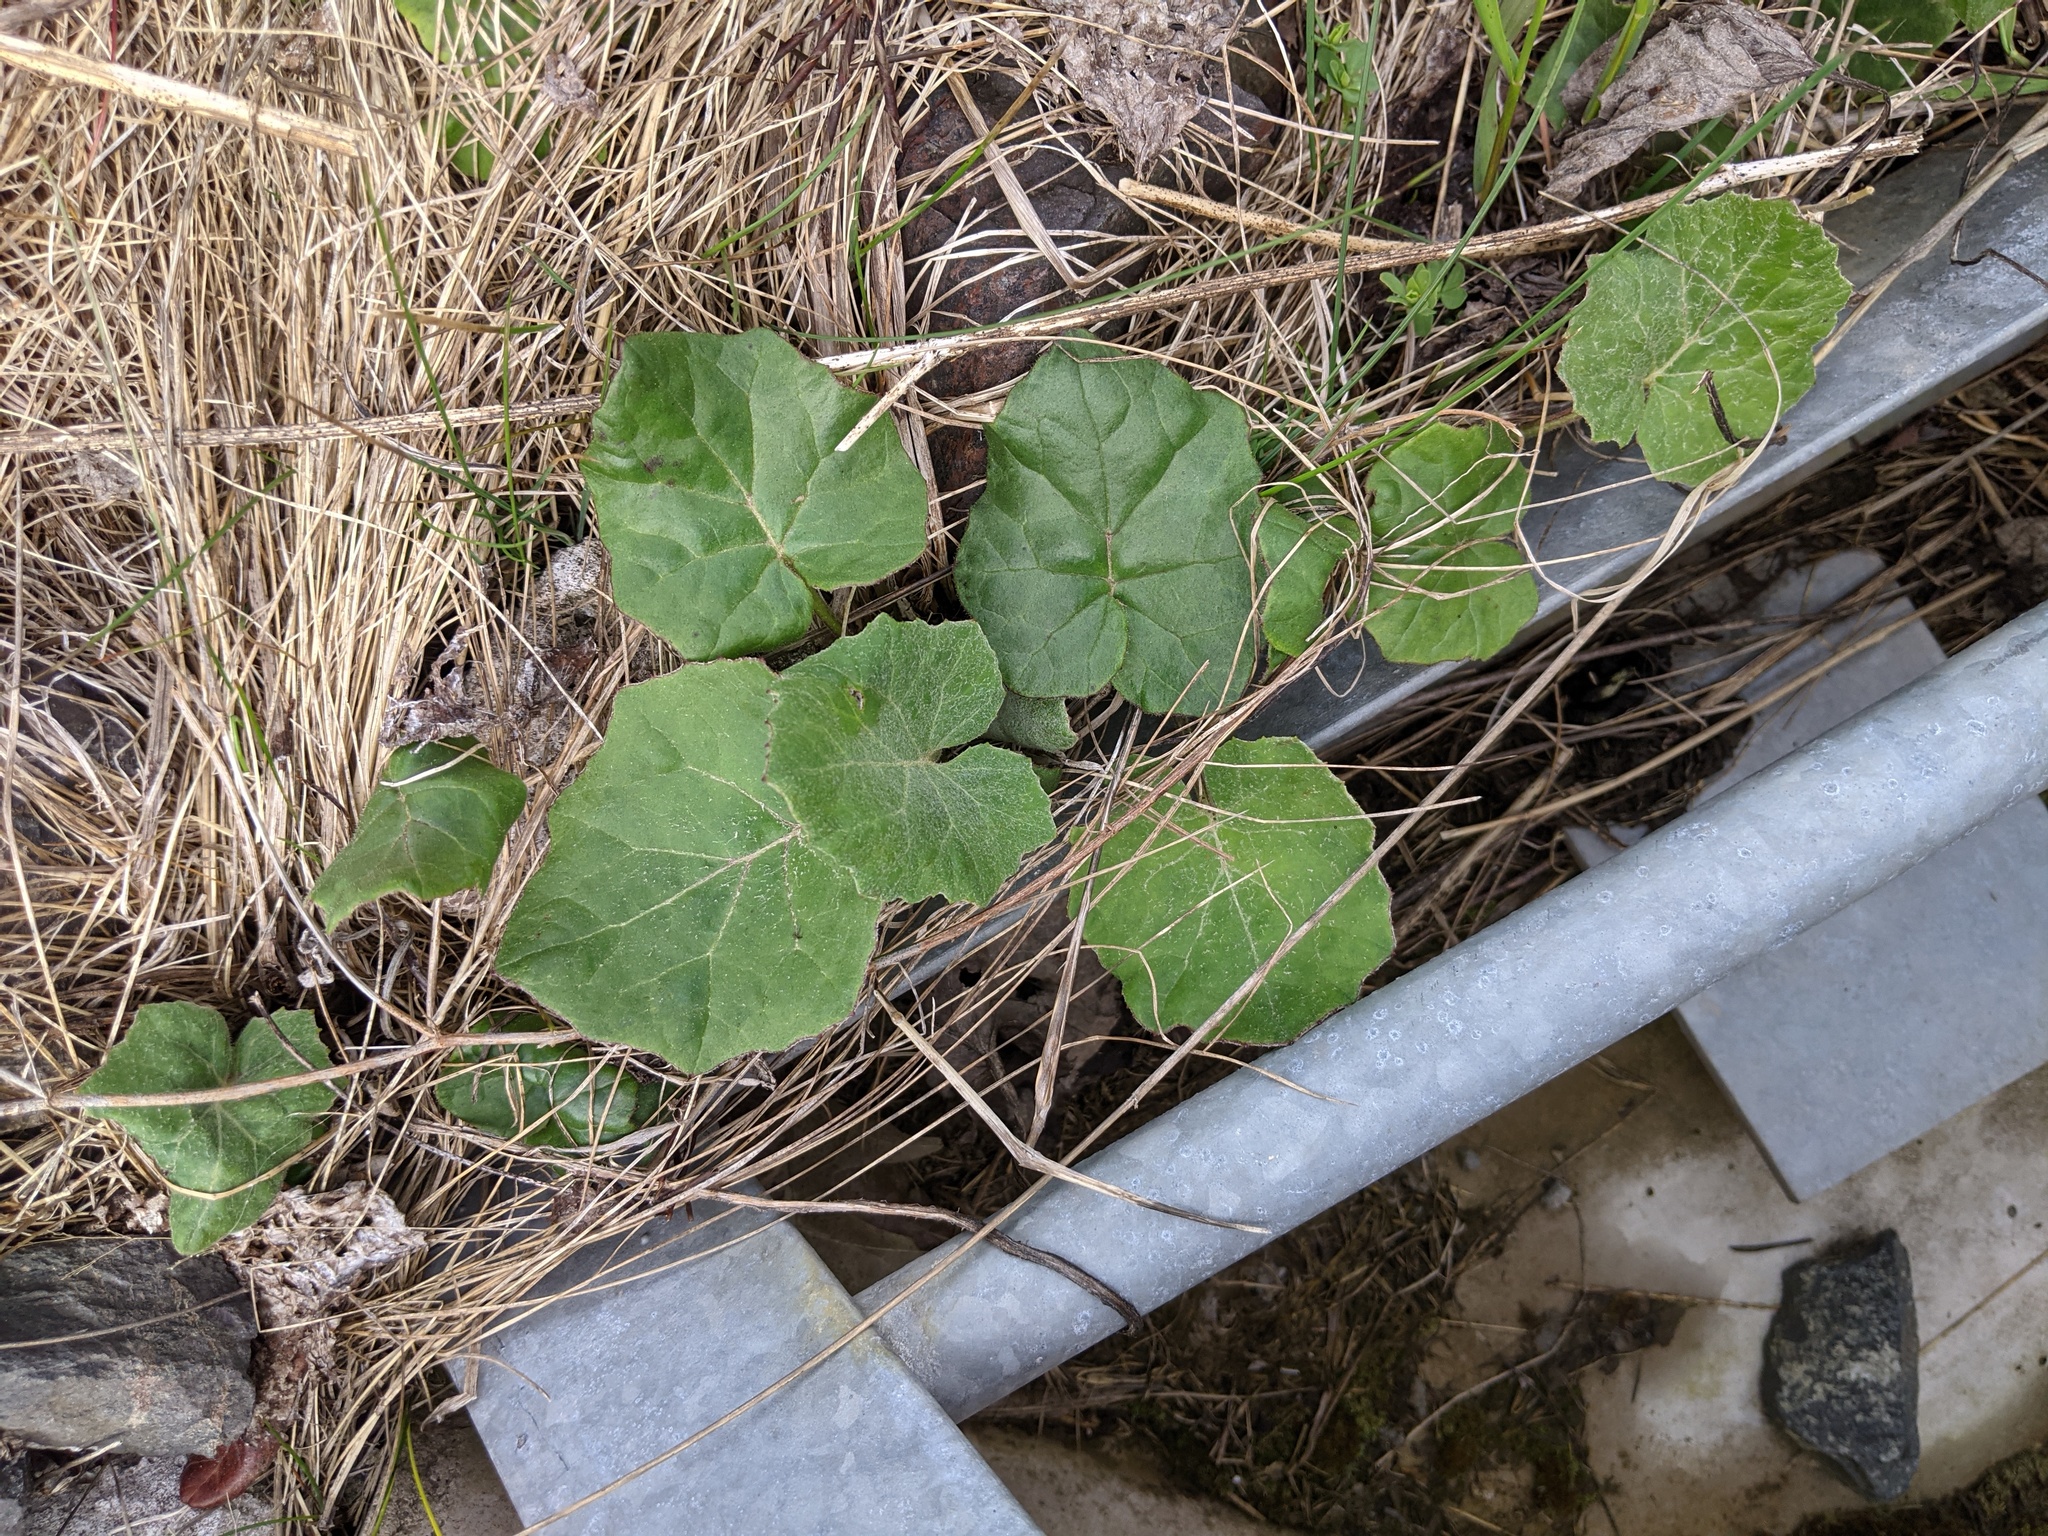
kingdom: Plantae
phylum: Tracheophyta
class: Magnoliopsida
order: Asterales
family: Asteraceae
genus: Tussilago
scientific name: Tussilago farfara
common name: Coltsfoot
